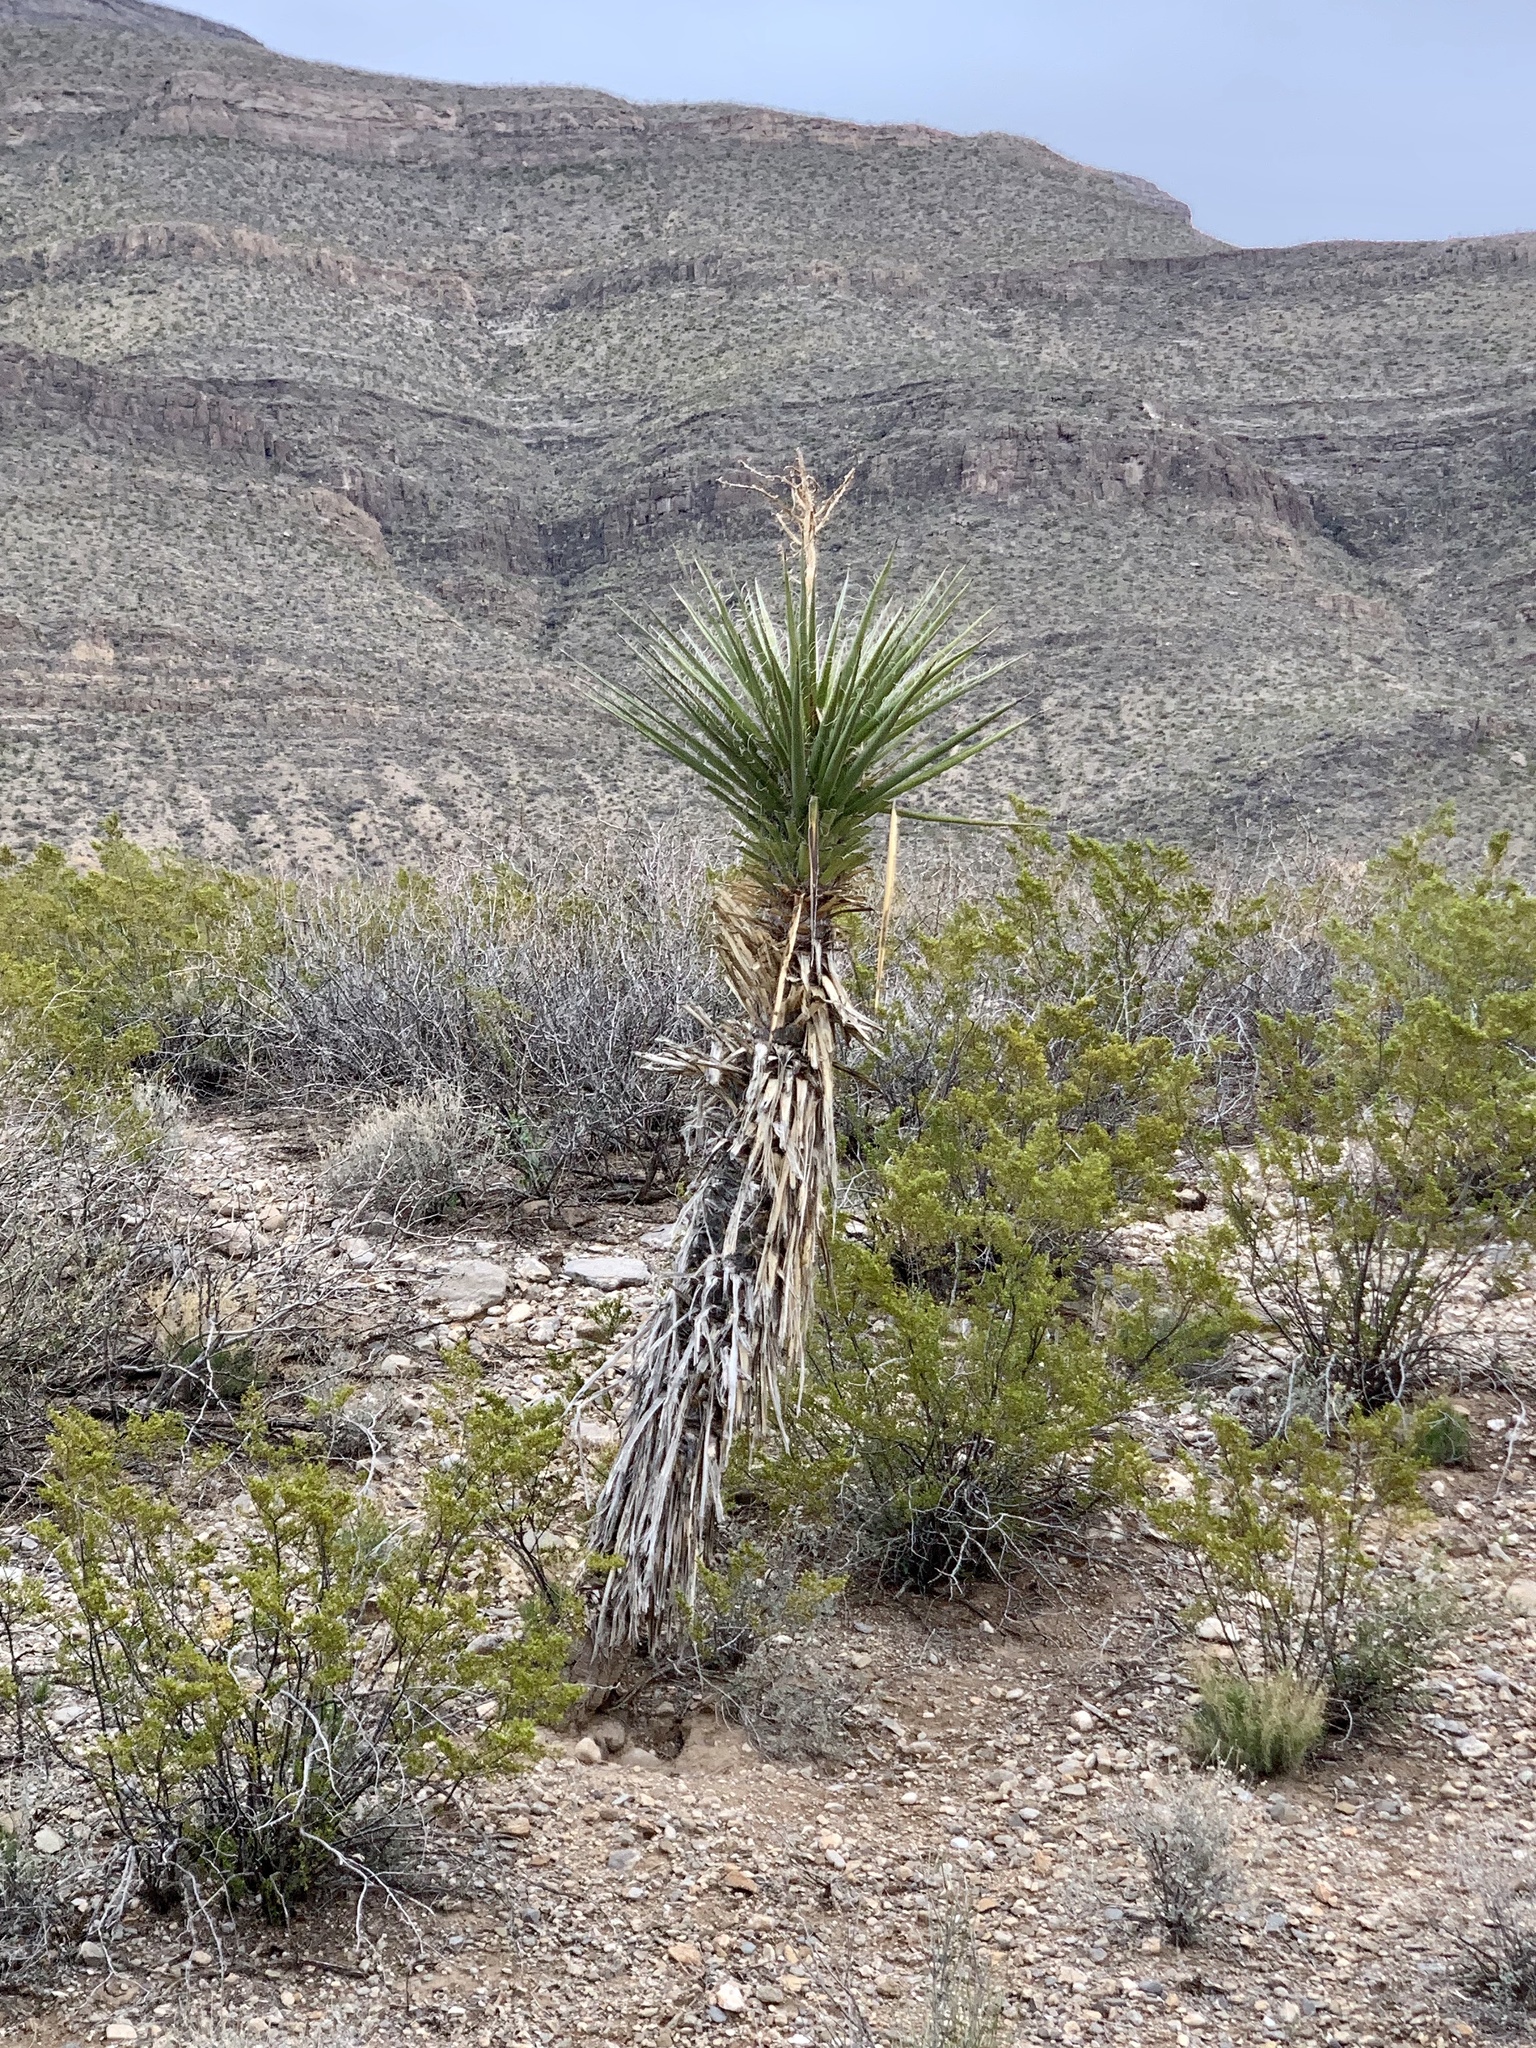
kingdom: Plantae
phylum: Tracheophyta
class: Liliopsida
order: Asparagales
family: Asparagaceae
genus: Yucca
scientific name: Yucca treculiana
